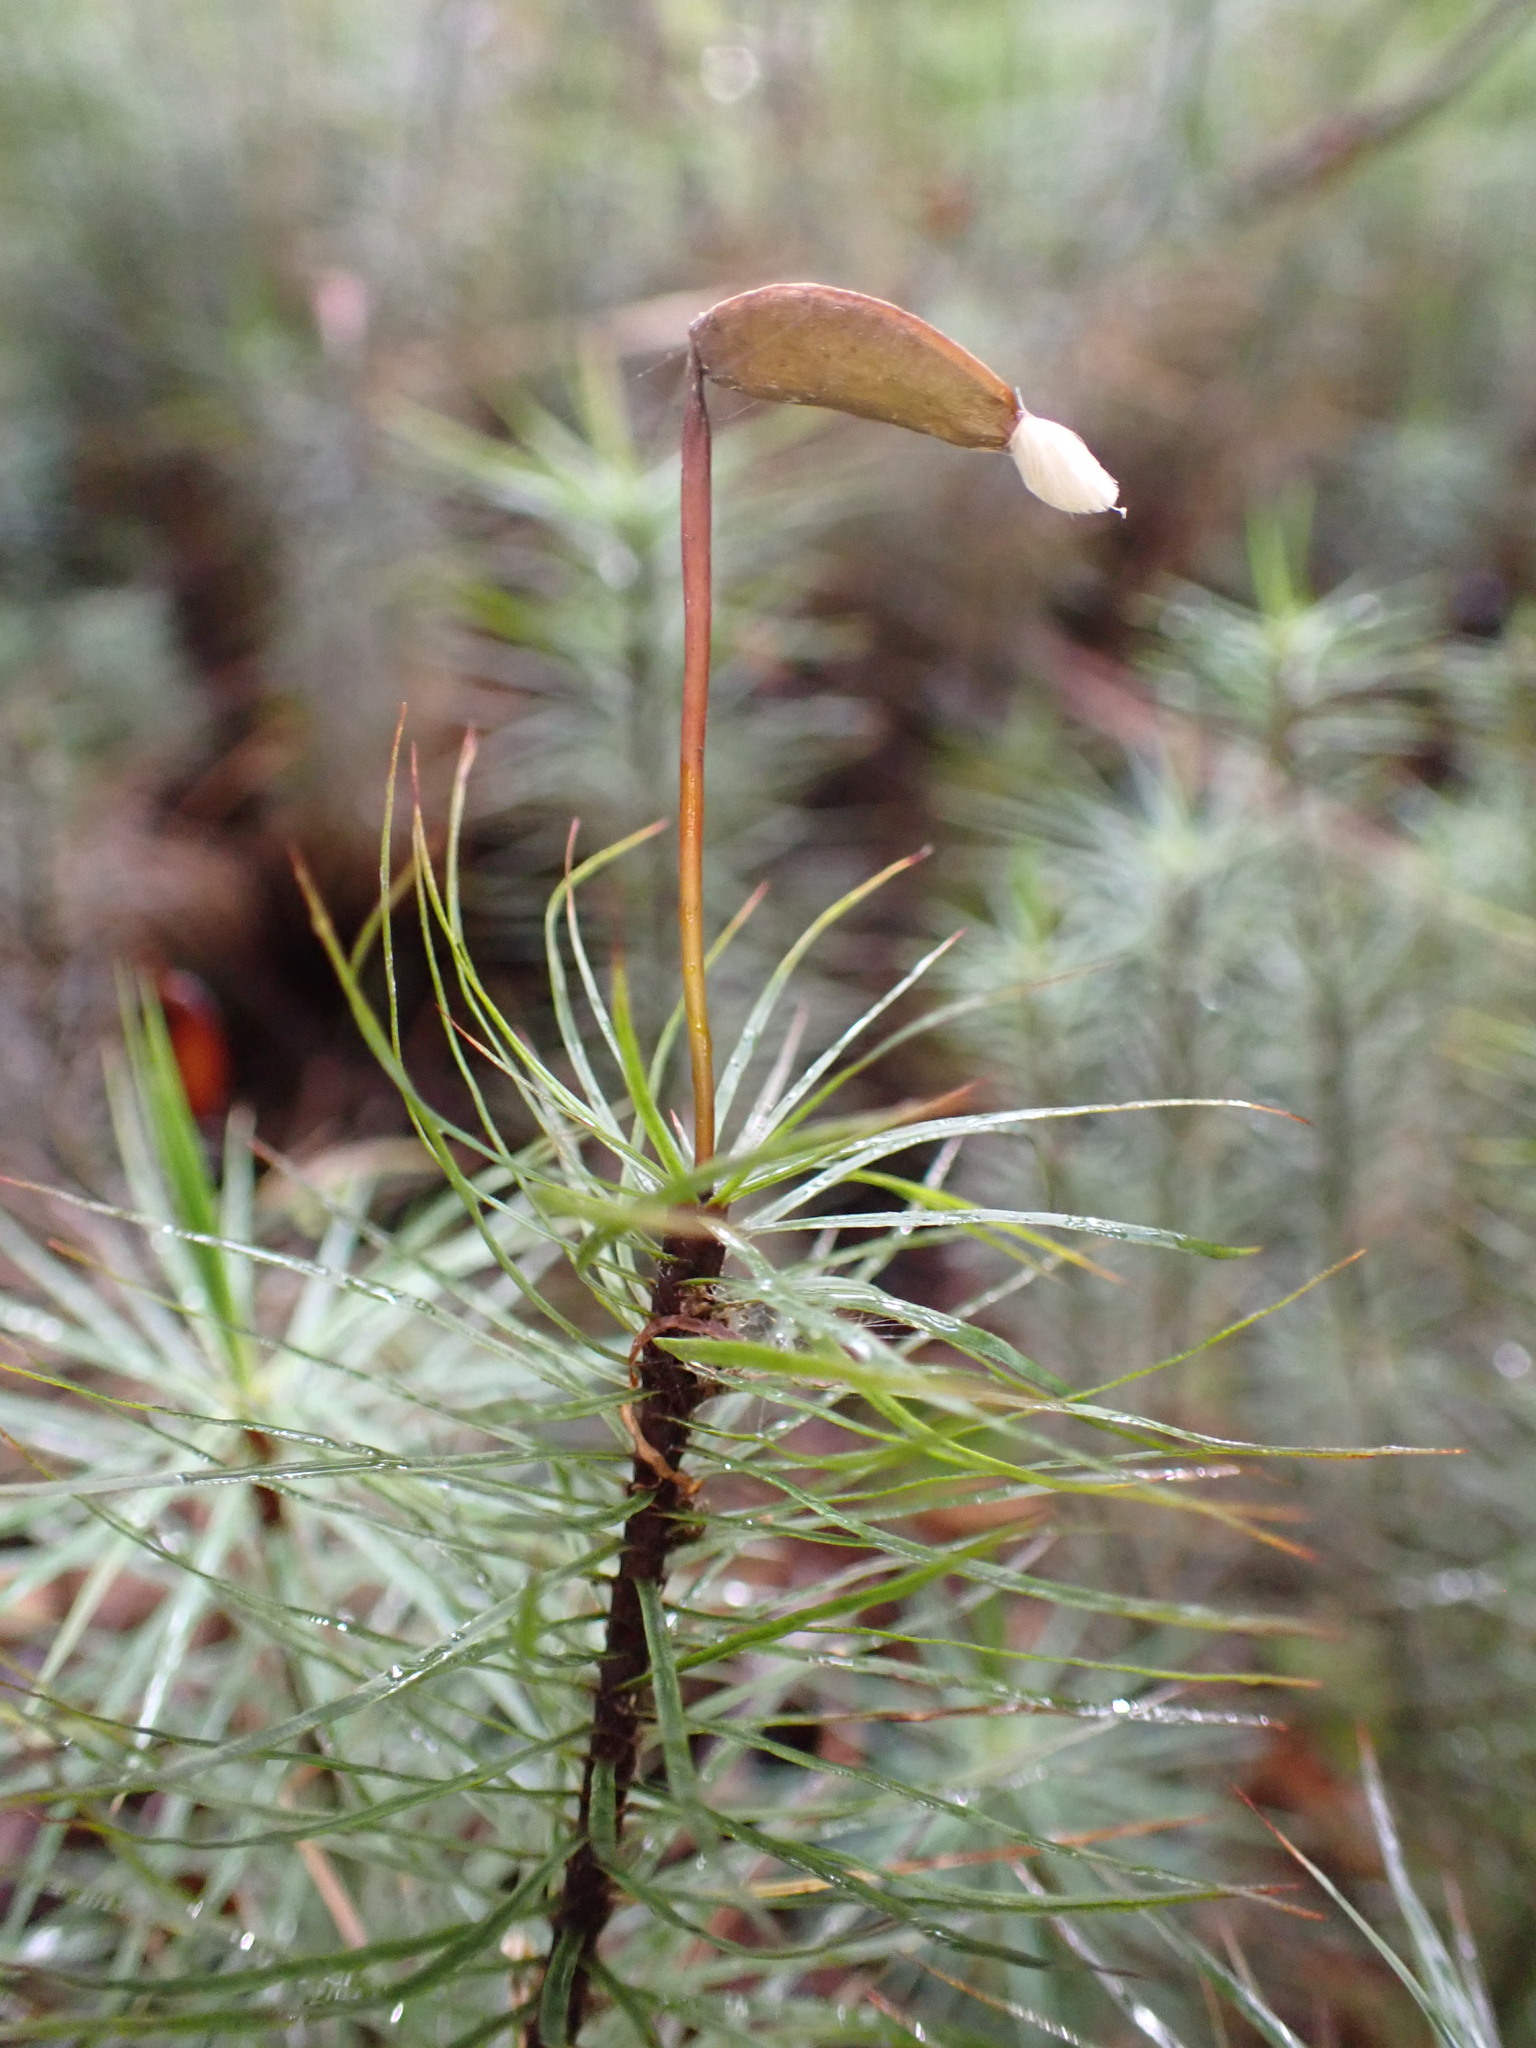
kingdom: Plantae
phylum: Bryophyta
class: Polytrichopsida
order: Polytrichales
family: Polytrichaceae
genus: Dawsonia
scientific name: Dawsonia superba
